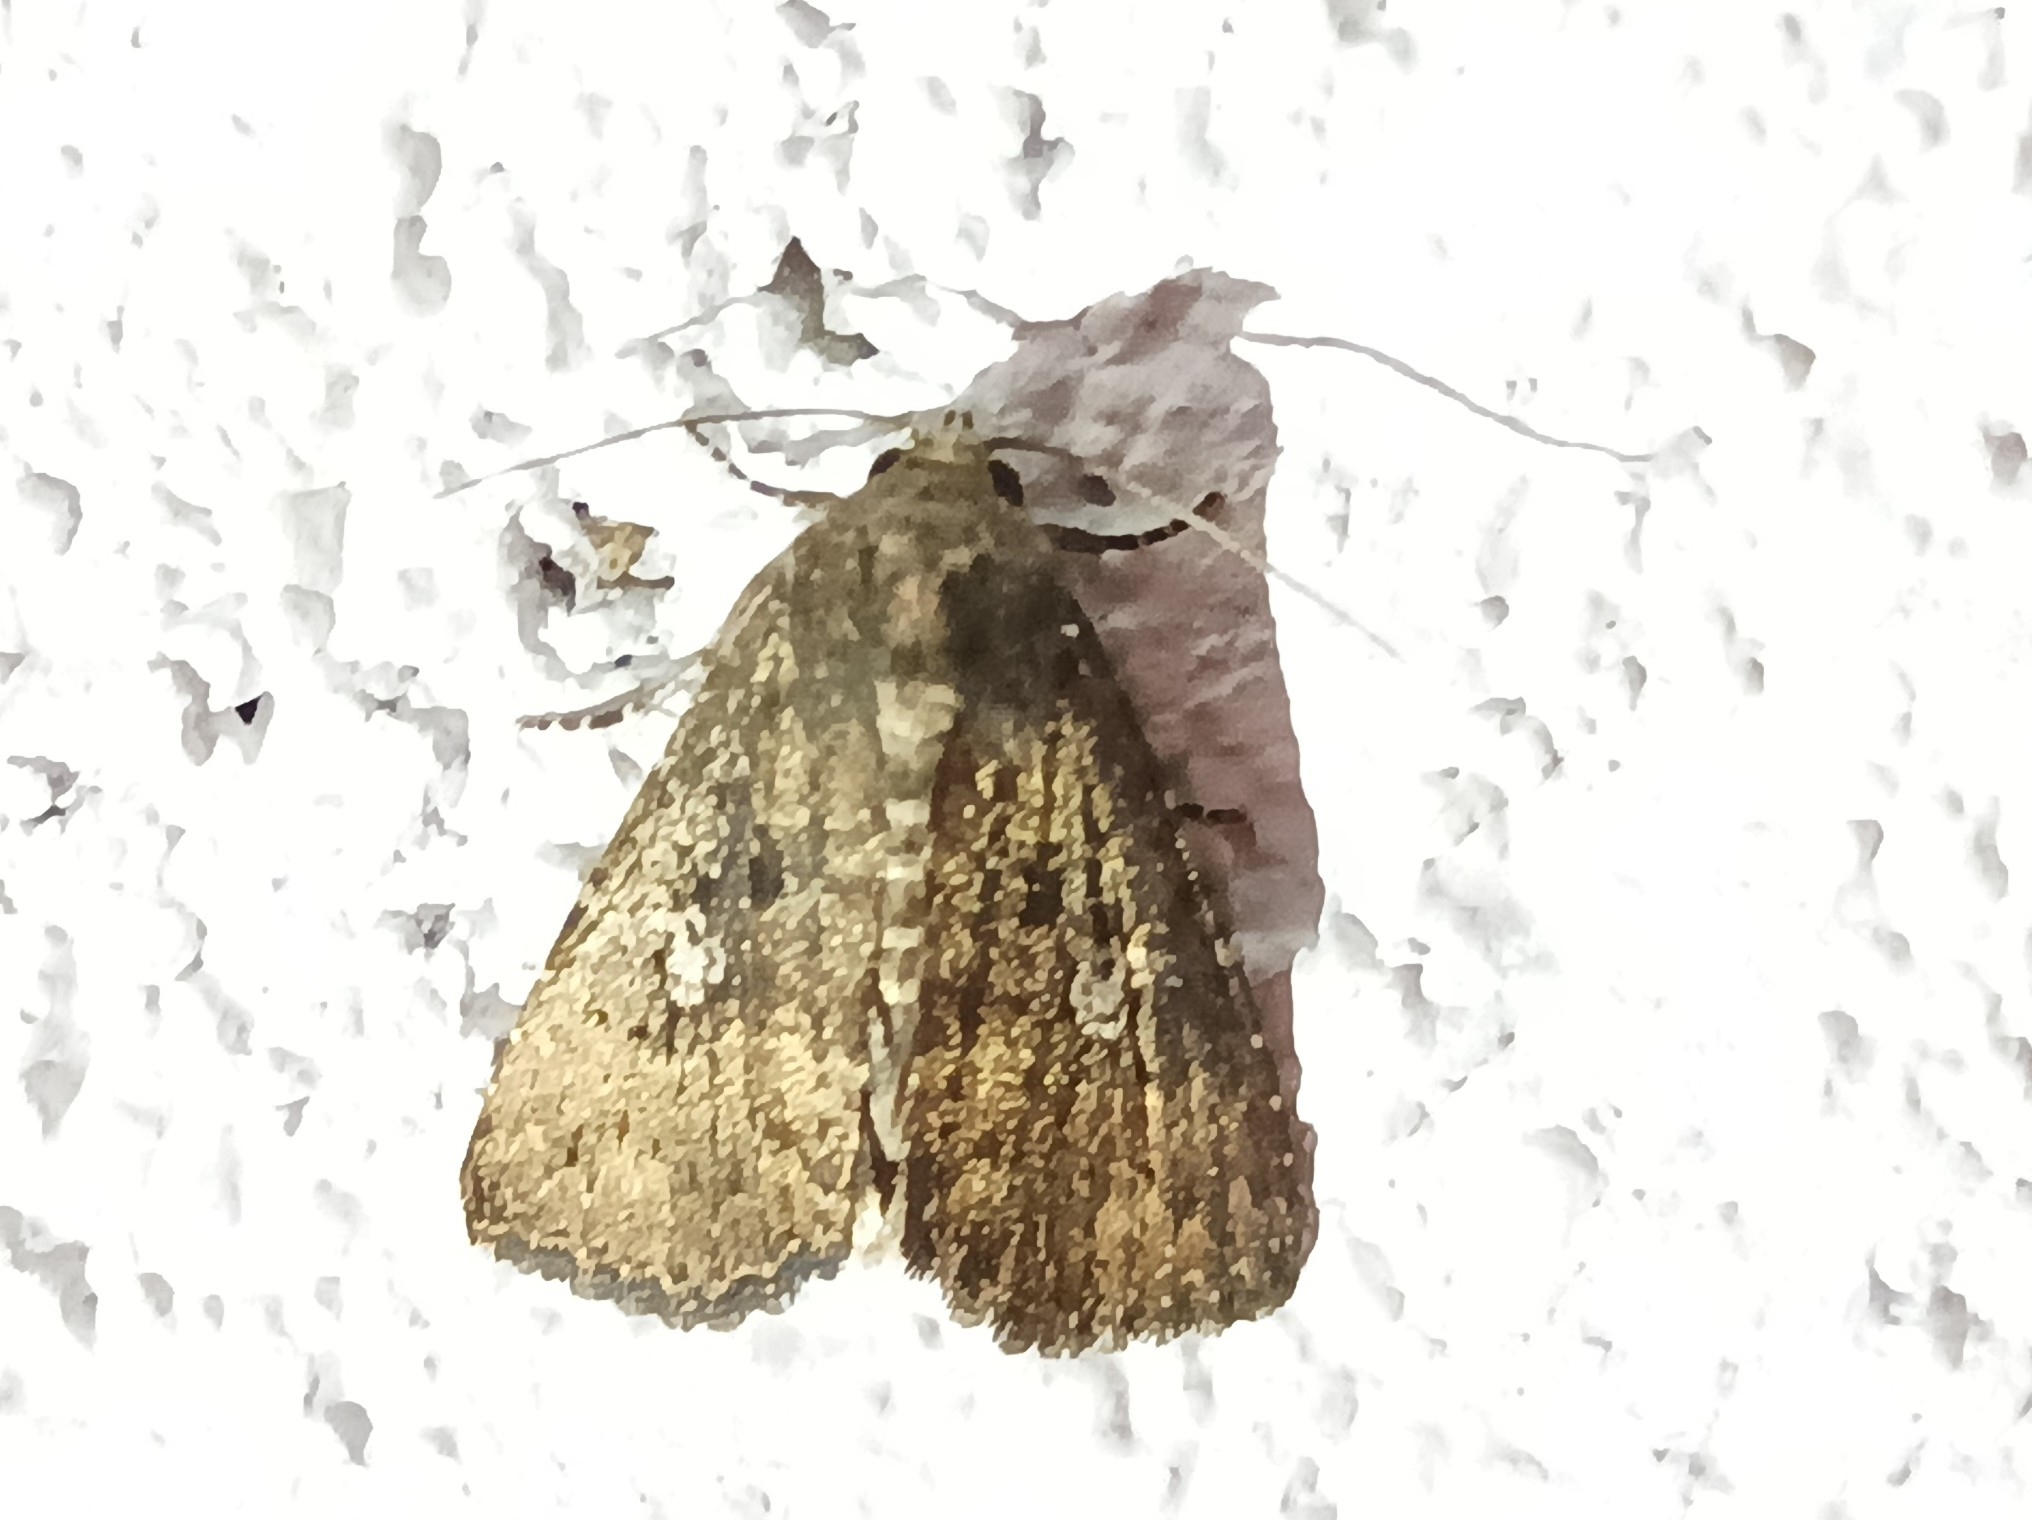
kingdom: Animalia
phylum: Arthropoda
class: Insecta
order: Lepidoptera
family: Noctuidae
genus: Condica
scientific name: Condica conducta
